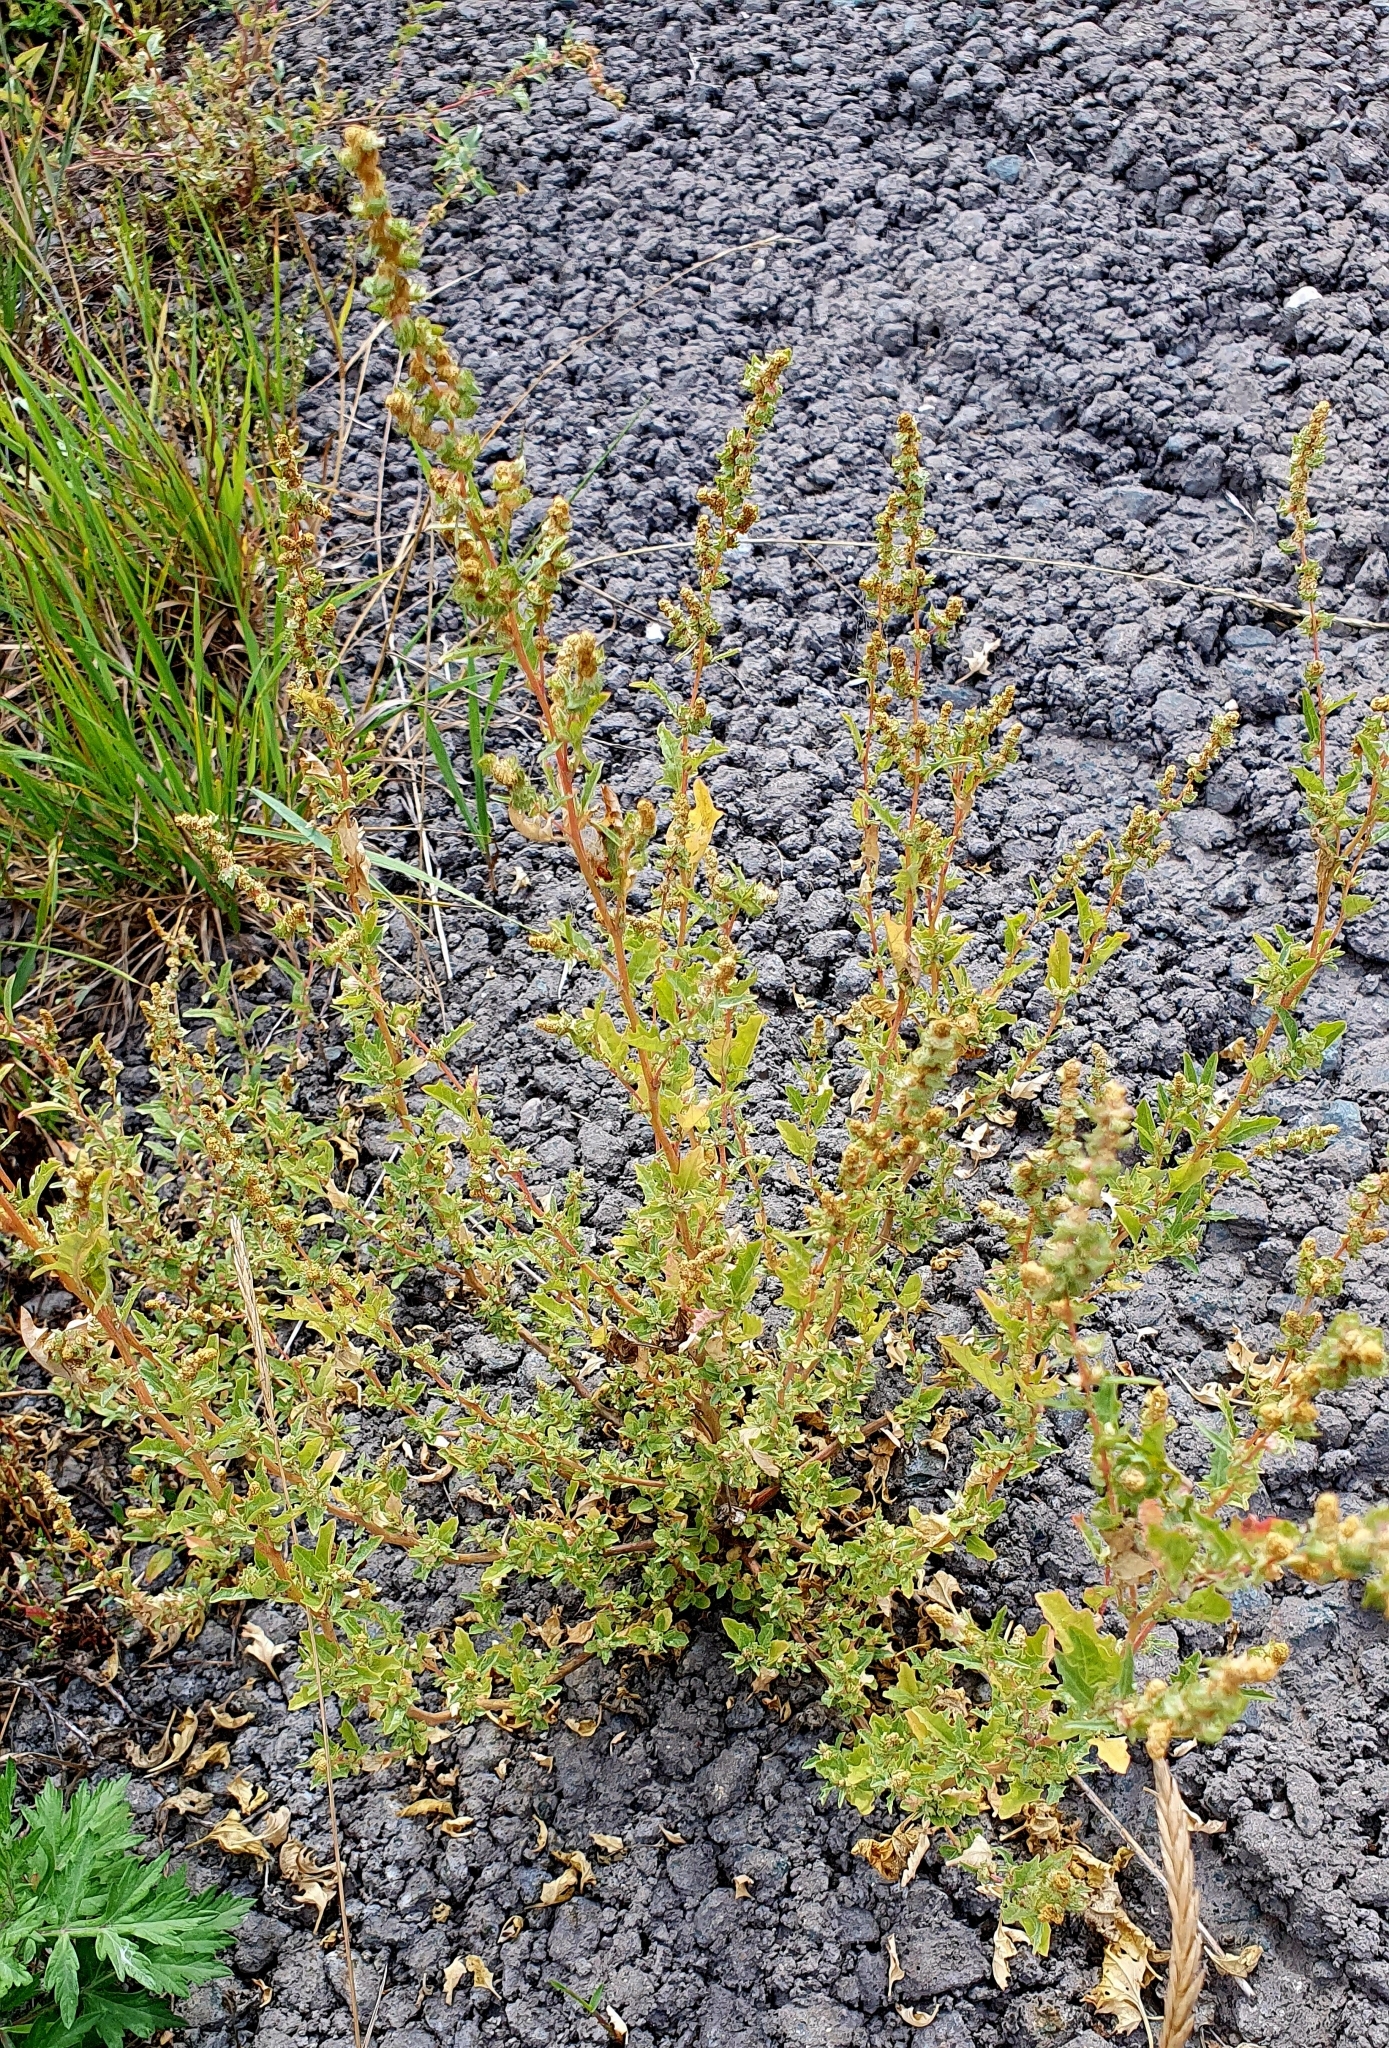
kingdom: Plantae
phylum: Tracheophyta
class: Magnoliopsida
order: Caryophyllales
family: Amaranthaceae
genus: Atriplex
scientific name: Atriplex tatarica
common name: Tatarian orache
